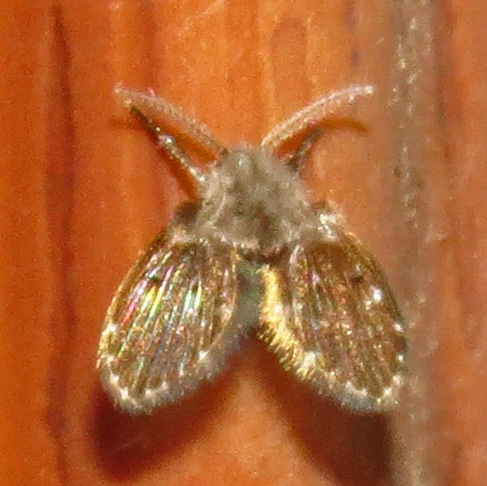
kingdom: Animalia
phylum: Arthropoda
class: Insecta
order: Diptera
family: Psychodidae
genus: Clogmia
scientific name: Clogmia albipunctatus
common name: White-spotted moth fly
